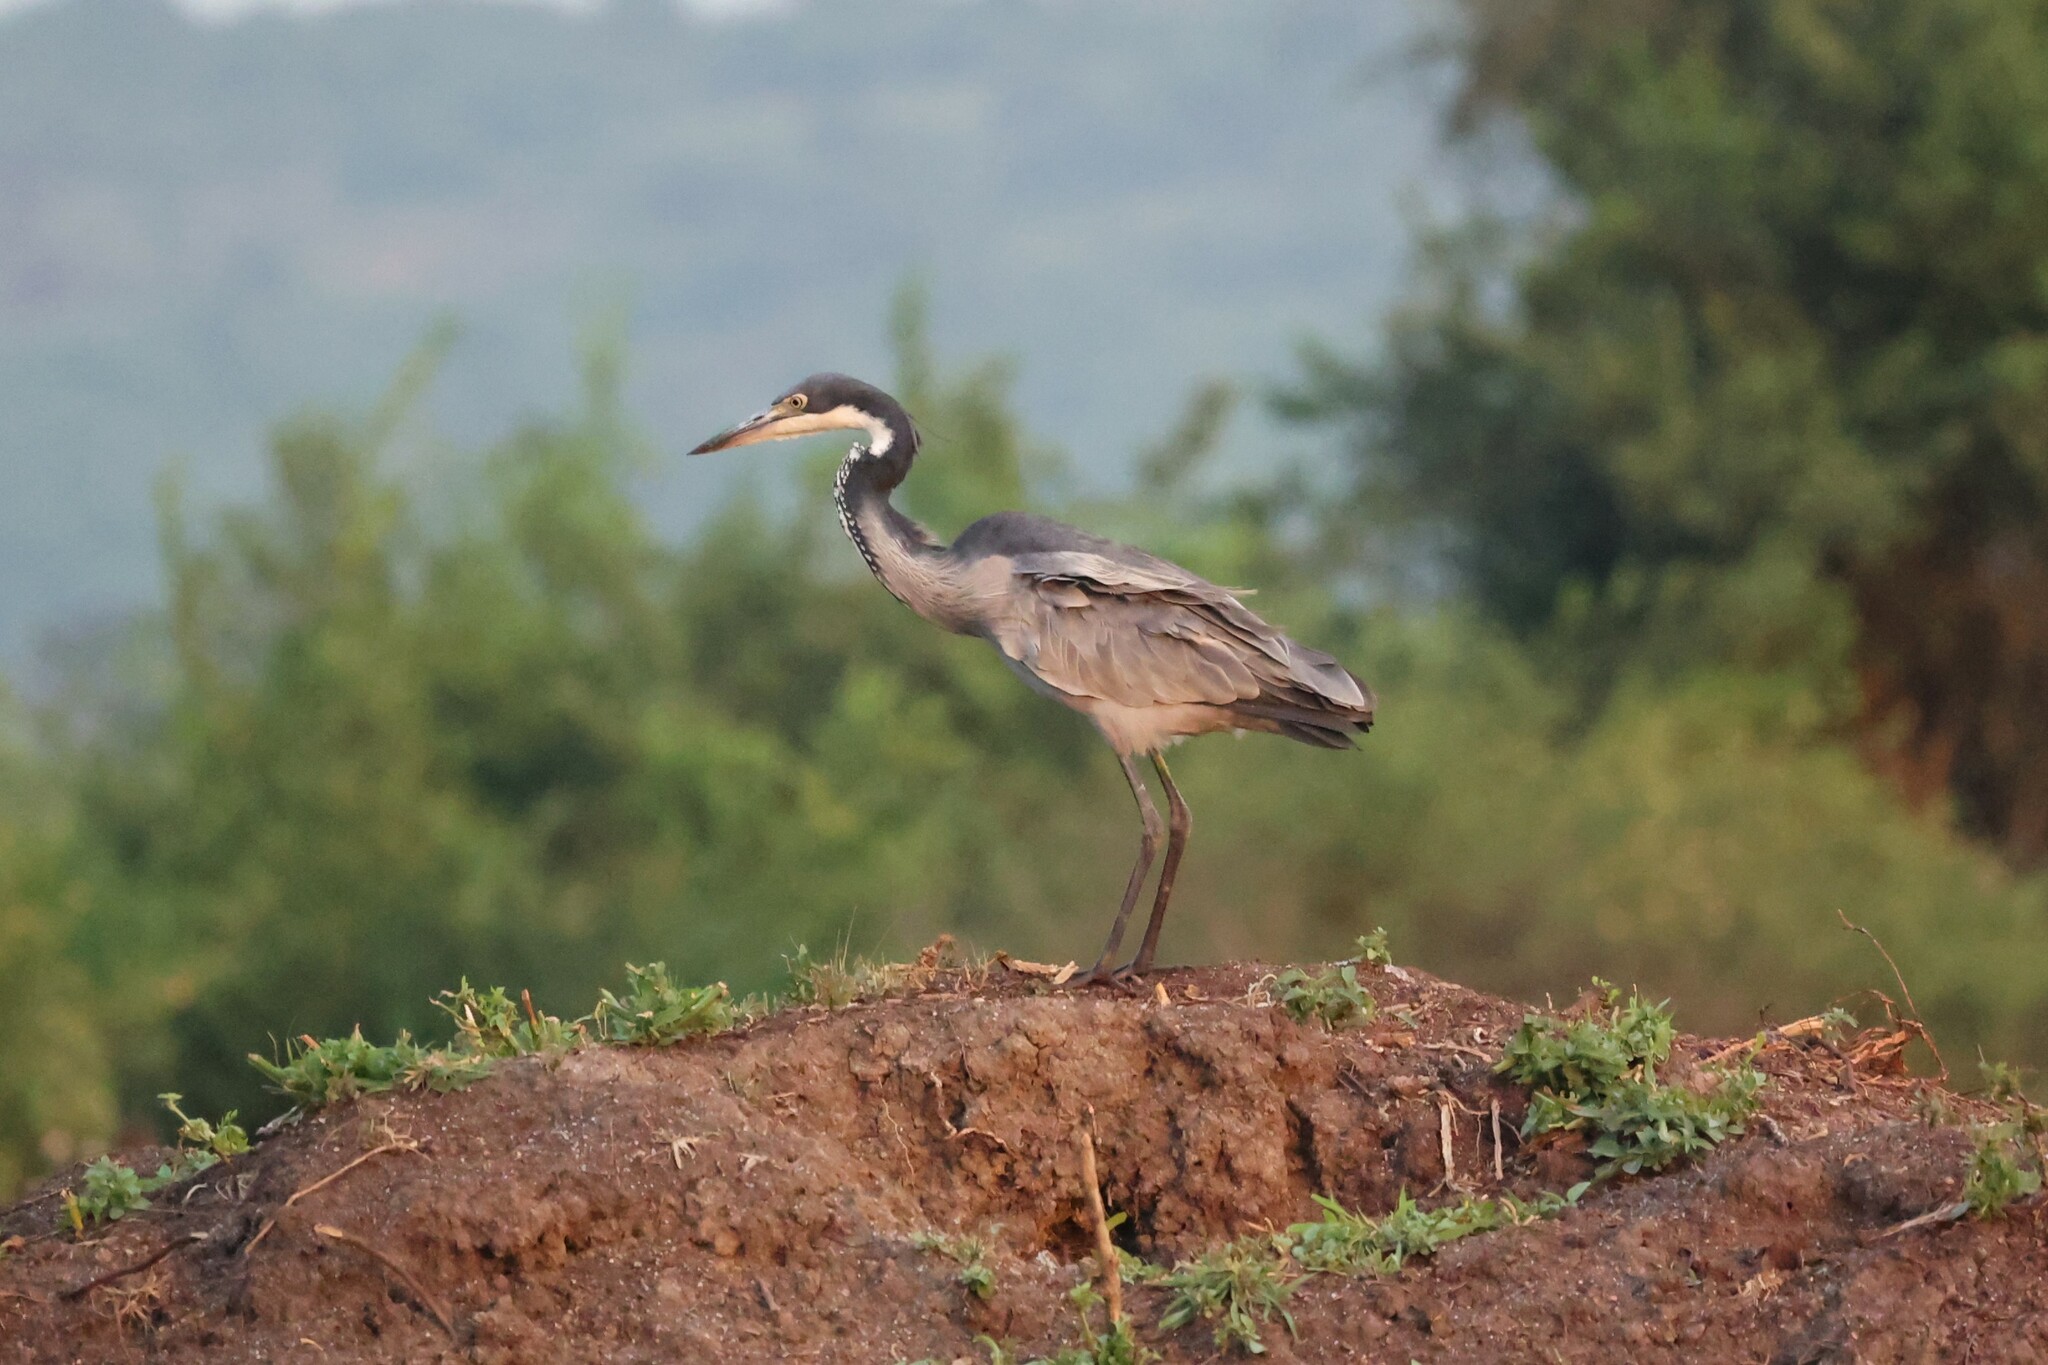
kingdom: Animalia
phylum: Chordata
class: Aves
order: Pelecaniformes
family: Ardeidae
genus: Ardea
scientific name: Ardea melanocephala
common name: Black-headed heron
